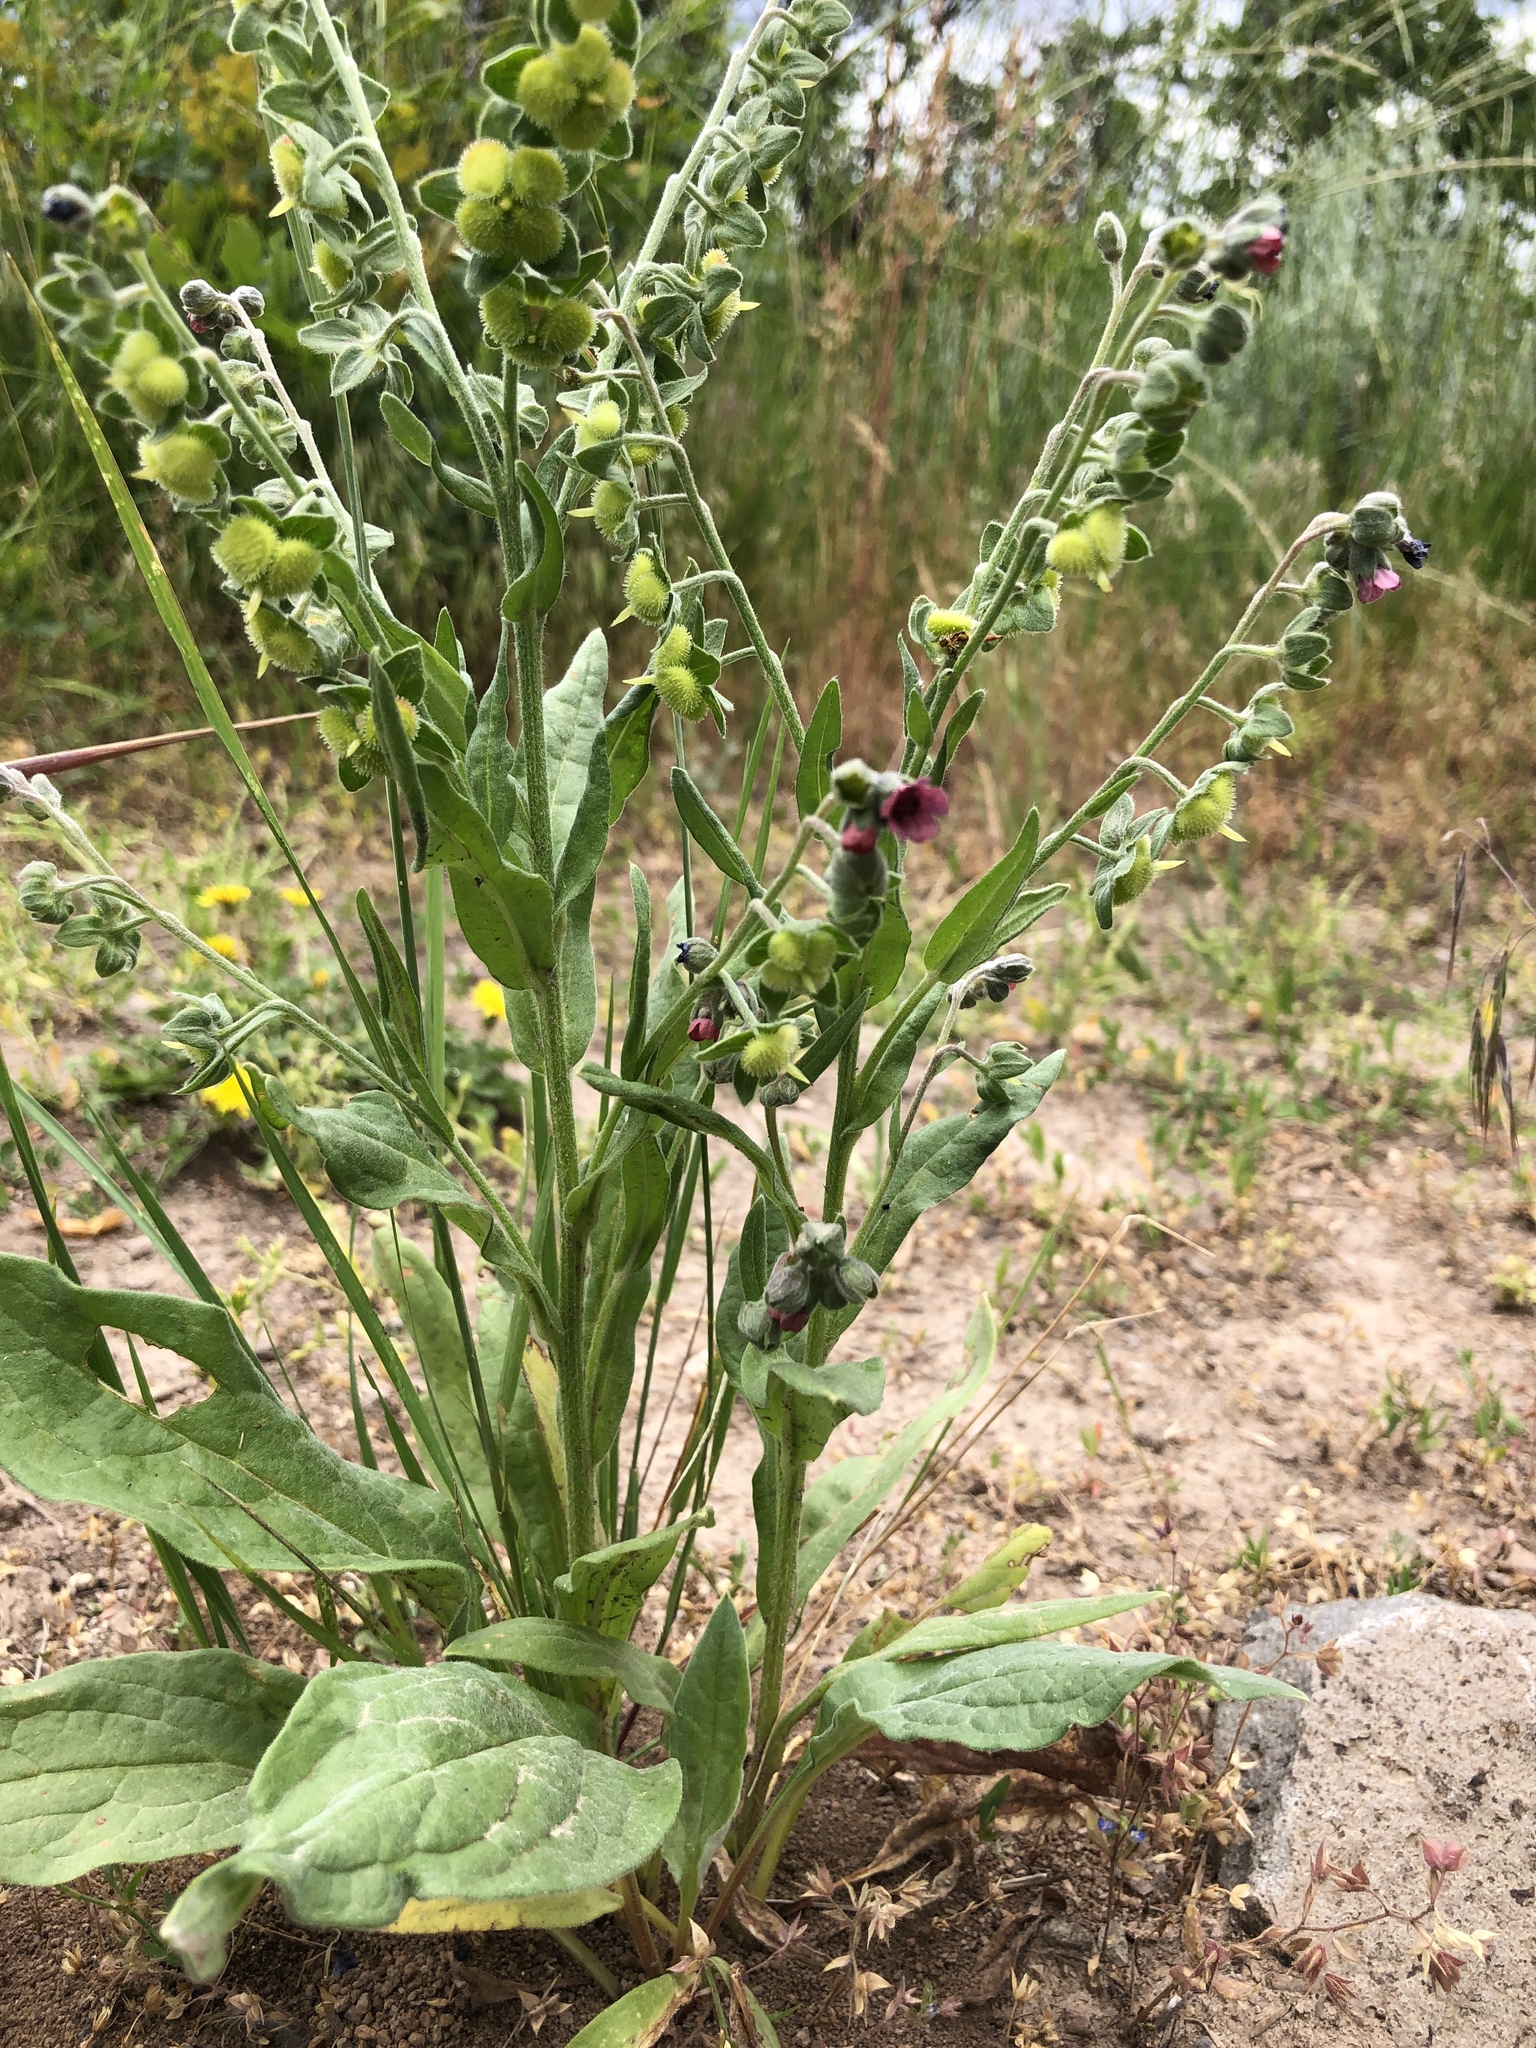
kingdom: Plantae
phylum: Tracheophyta
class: Magnoliopsida
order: Boraginales
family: Boraginaceae
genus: Cynoglossum
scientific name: Cynoglossum officinale
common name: Hound's-tongue
